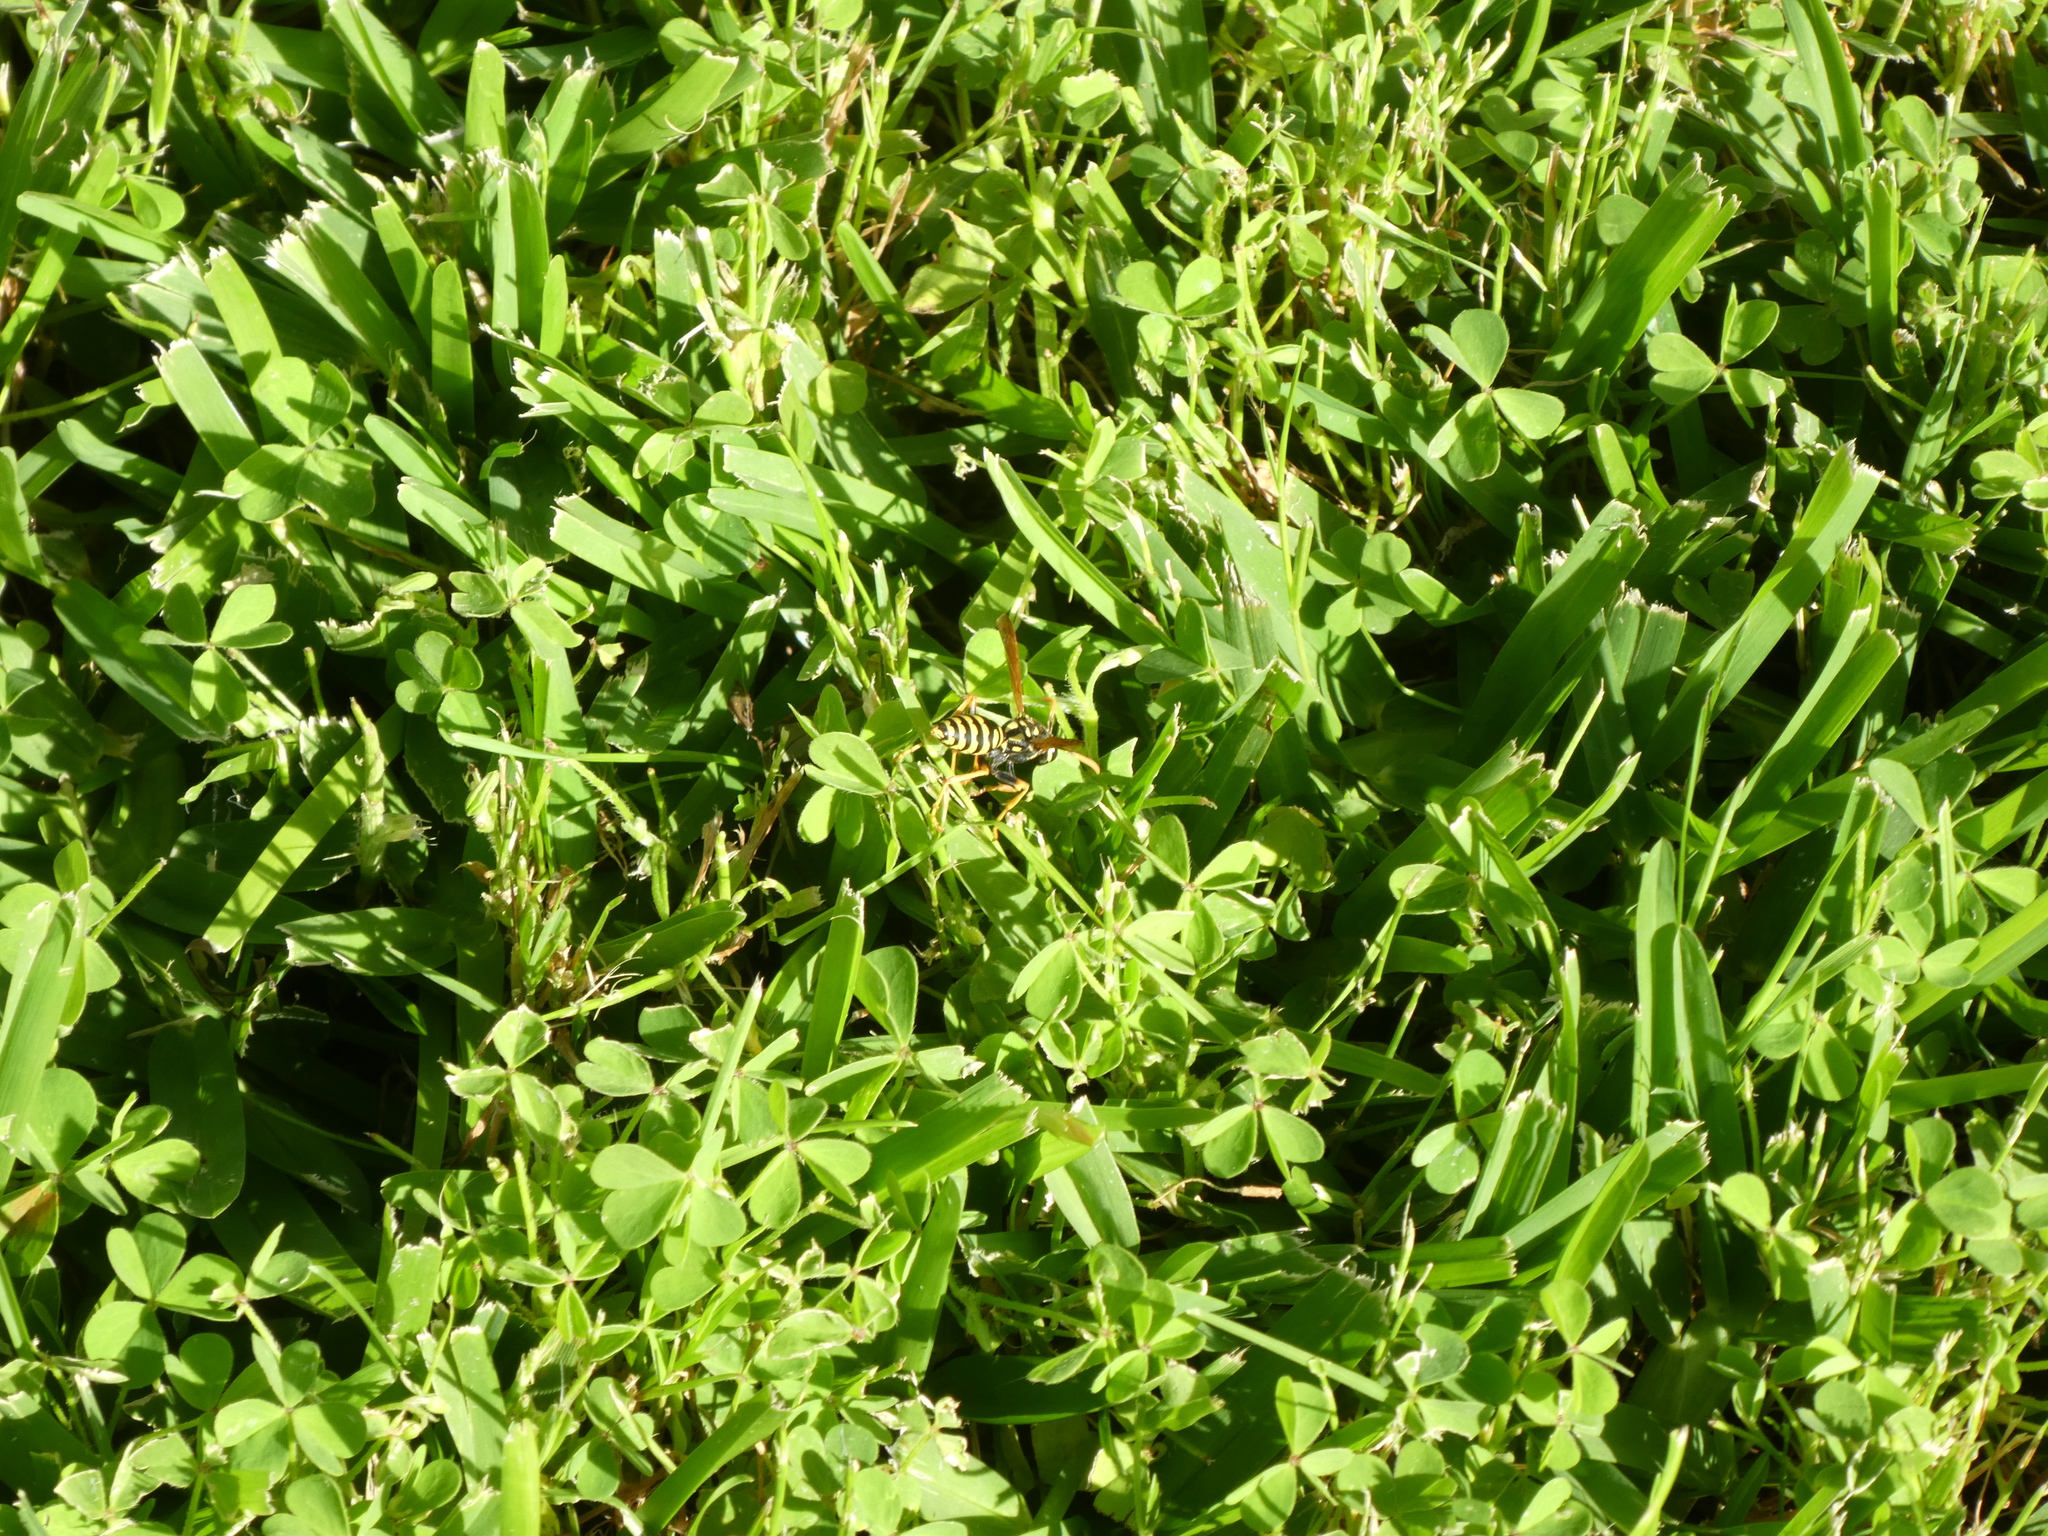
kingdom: Animalia
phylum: Arthropoda
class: Insecta
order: Hymenoptera
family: Eumenidae
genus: Polistes
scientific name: Polistes dominula
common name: Paper wasp
